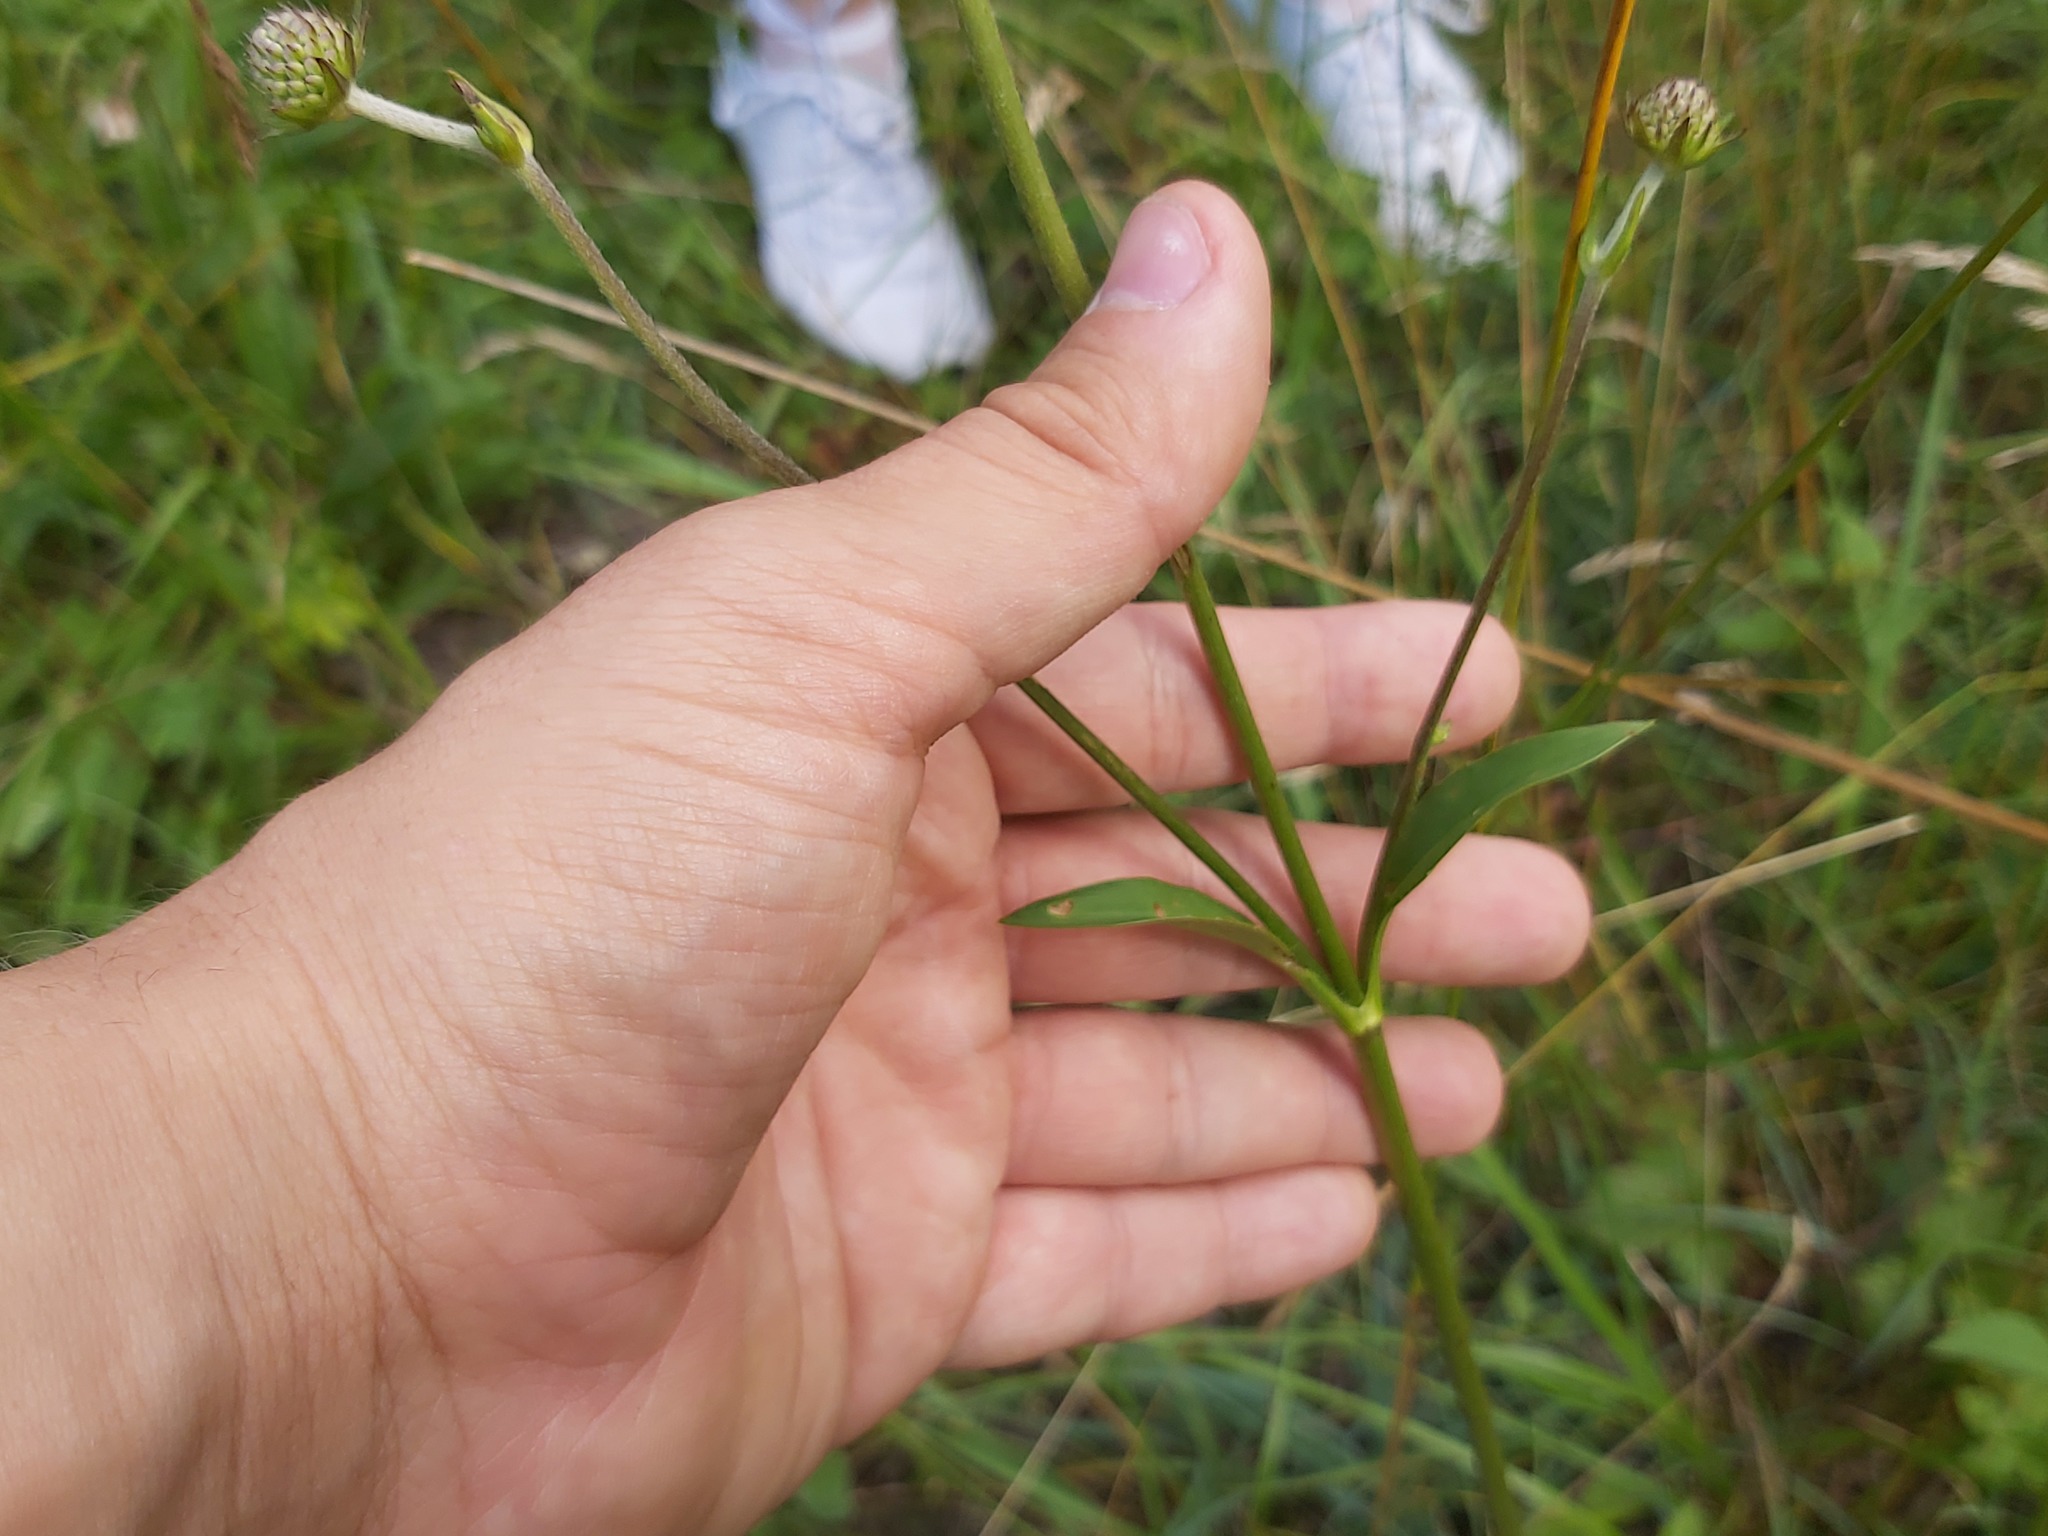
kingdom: Plantae
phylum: Tracheophyta
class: Magnoliopsida
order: Dipsacales
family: Caprifoliaceae
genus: Succisa
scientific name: Succisa pratensis
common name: Devil's-bit
